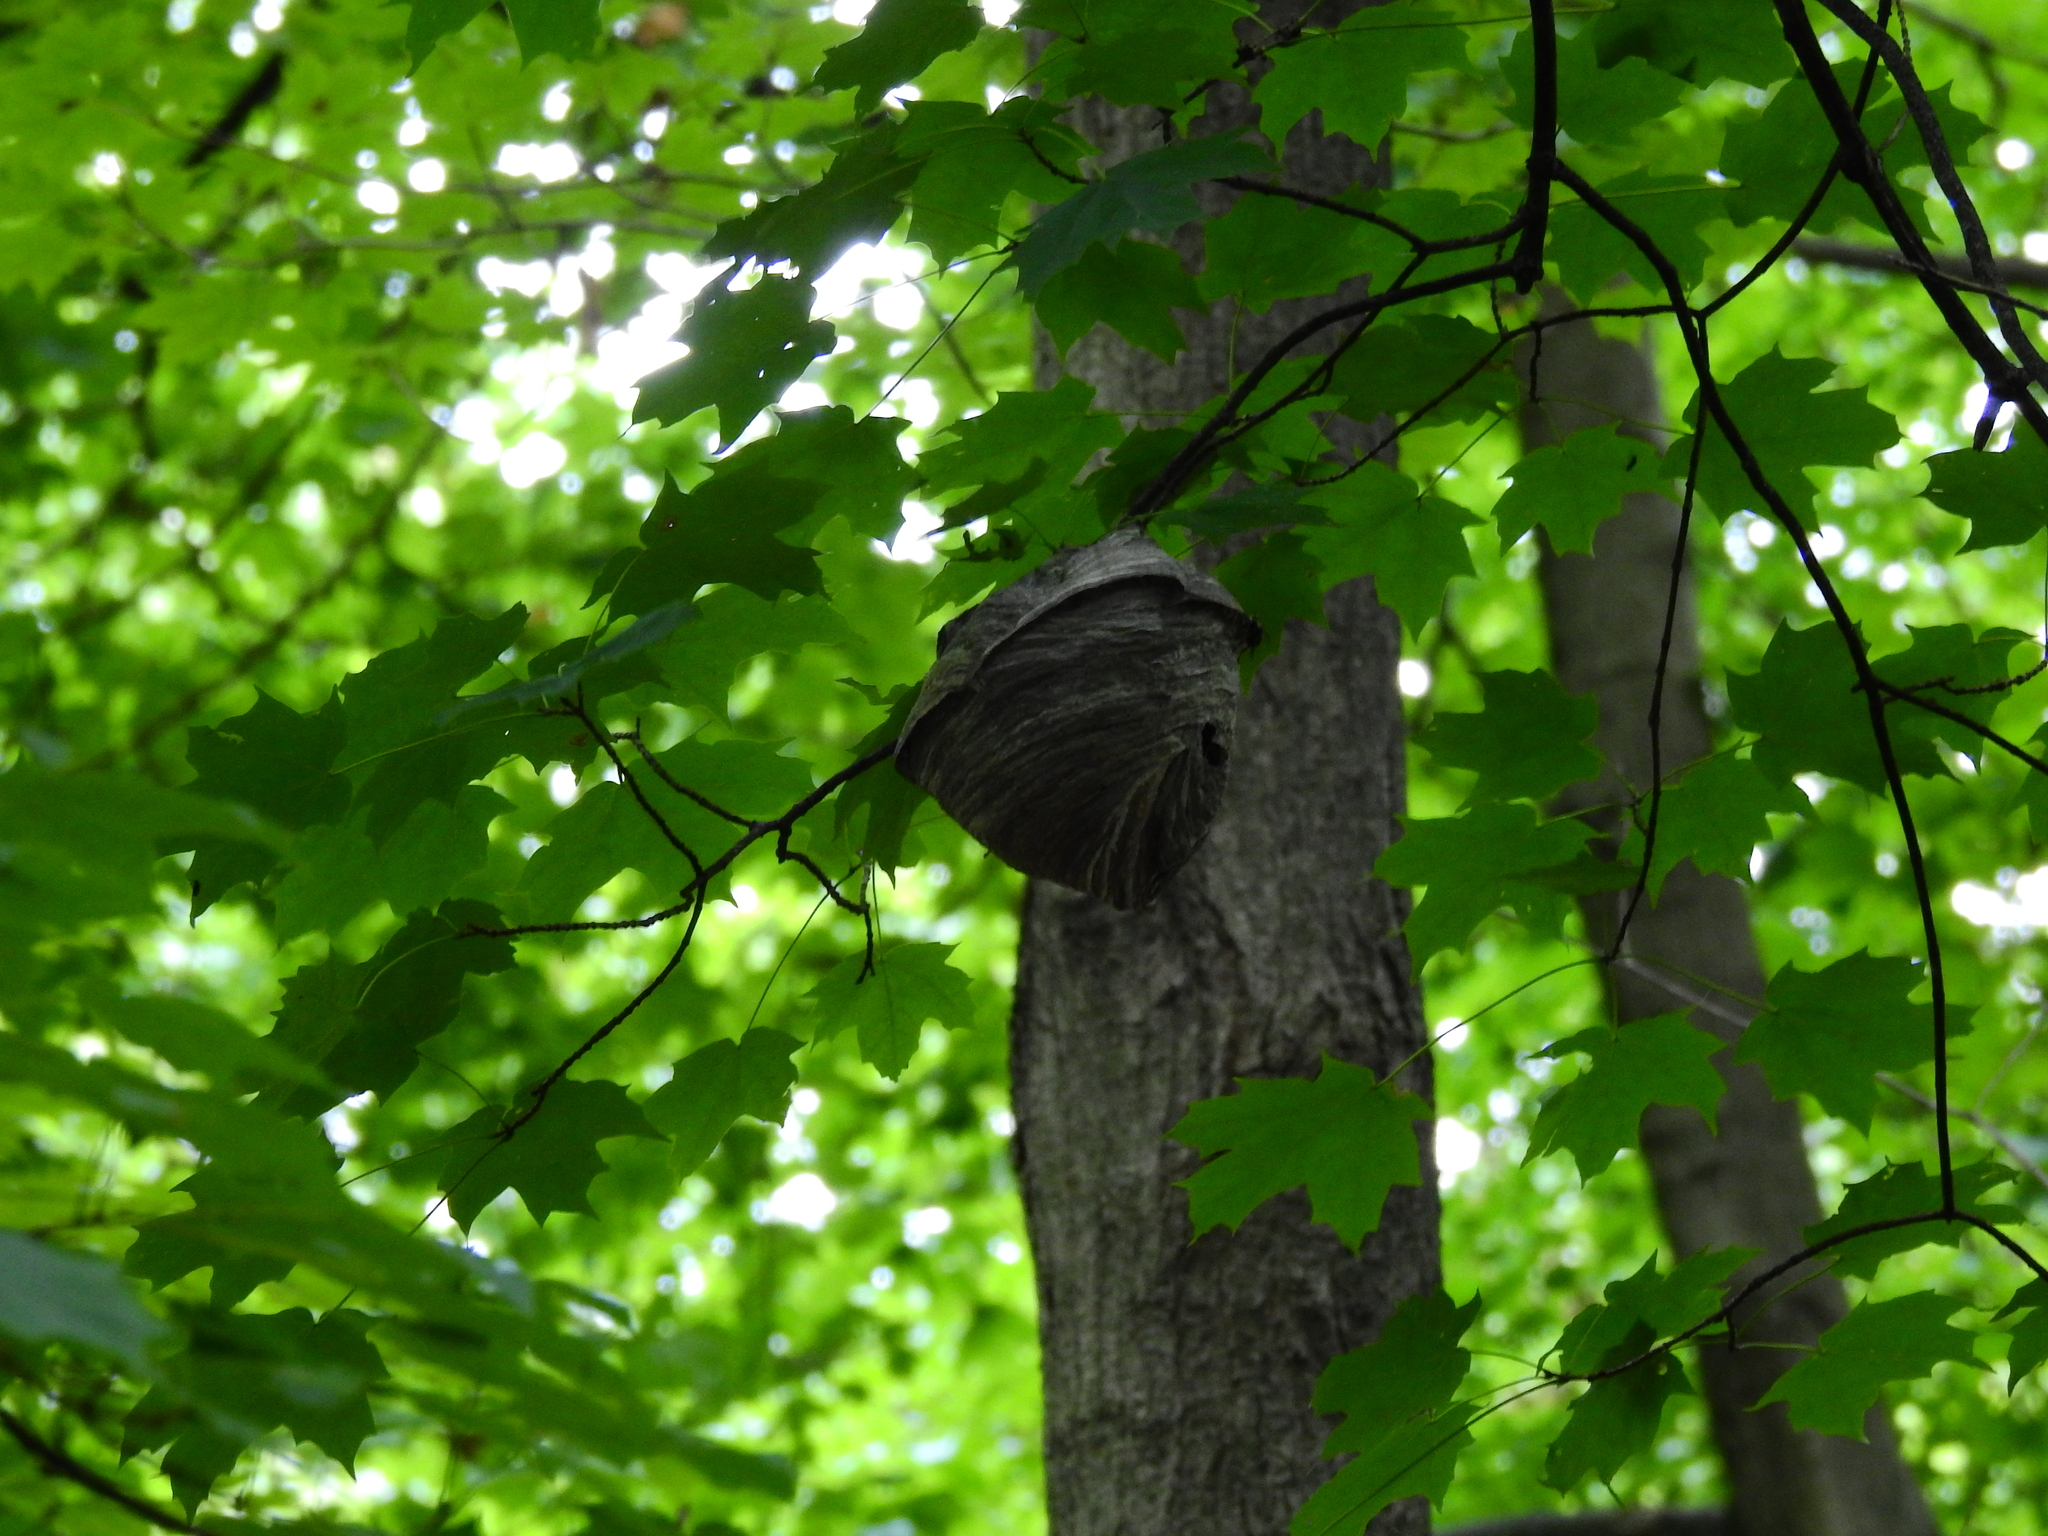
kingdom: Animalia
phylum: Arthropoda
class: Insecta
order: Hymenoptera
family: Vespidae
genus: Dolichovespula
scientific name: Dolichovespula maculata
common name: Bald-faced hornet
